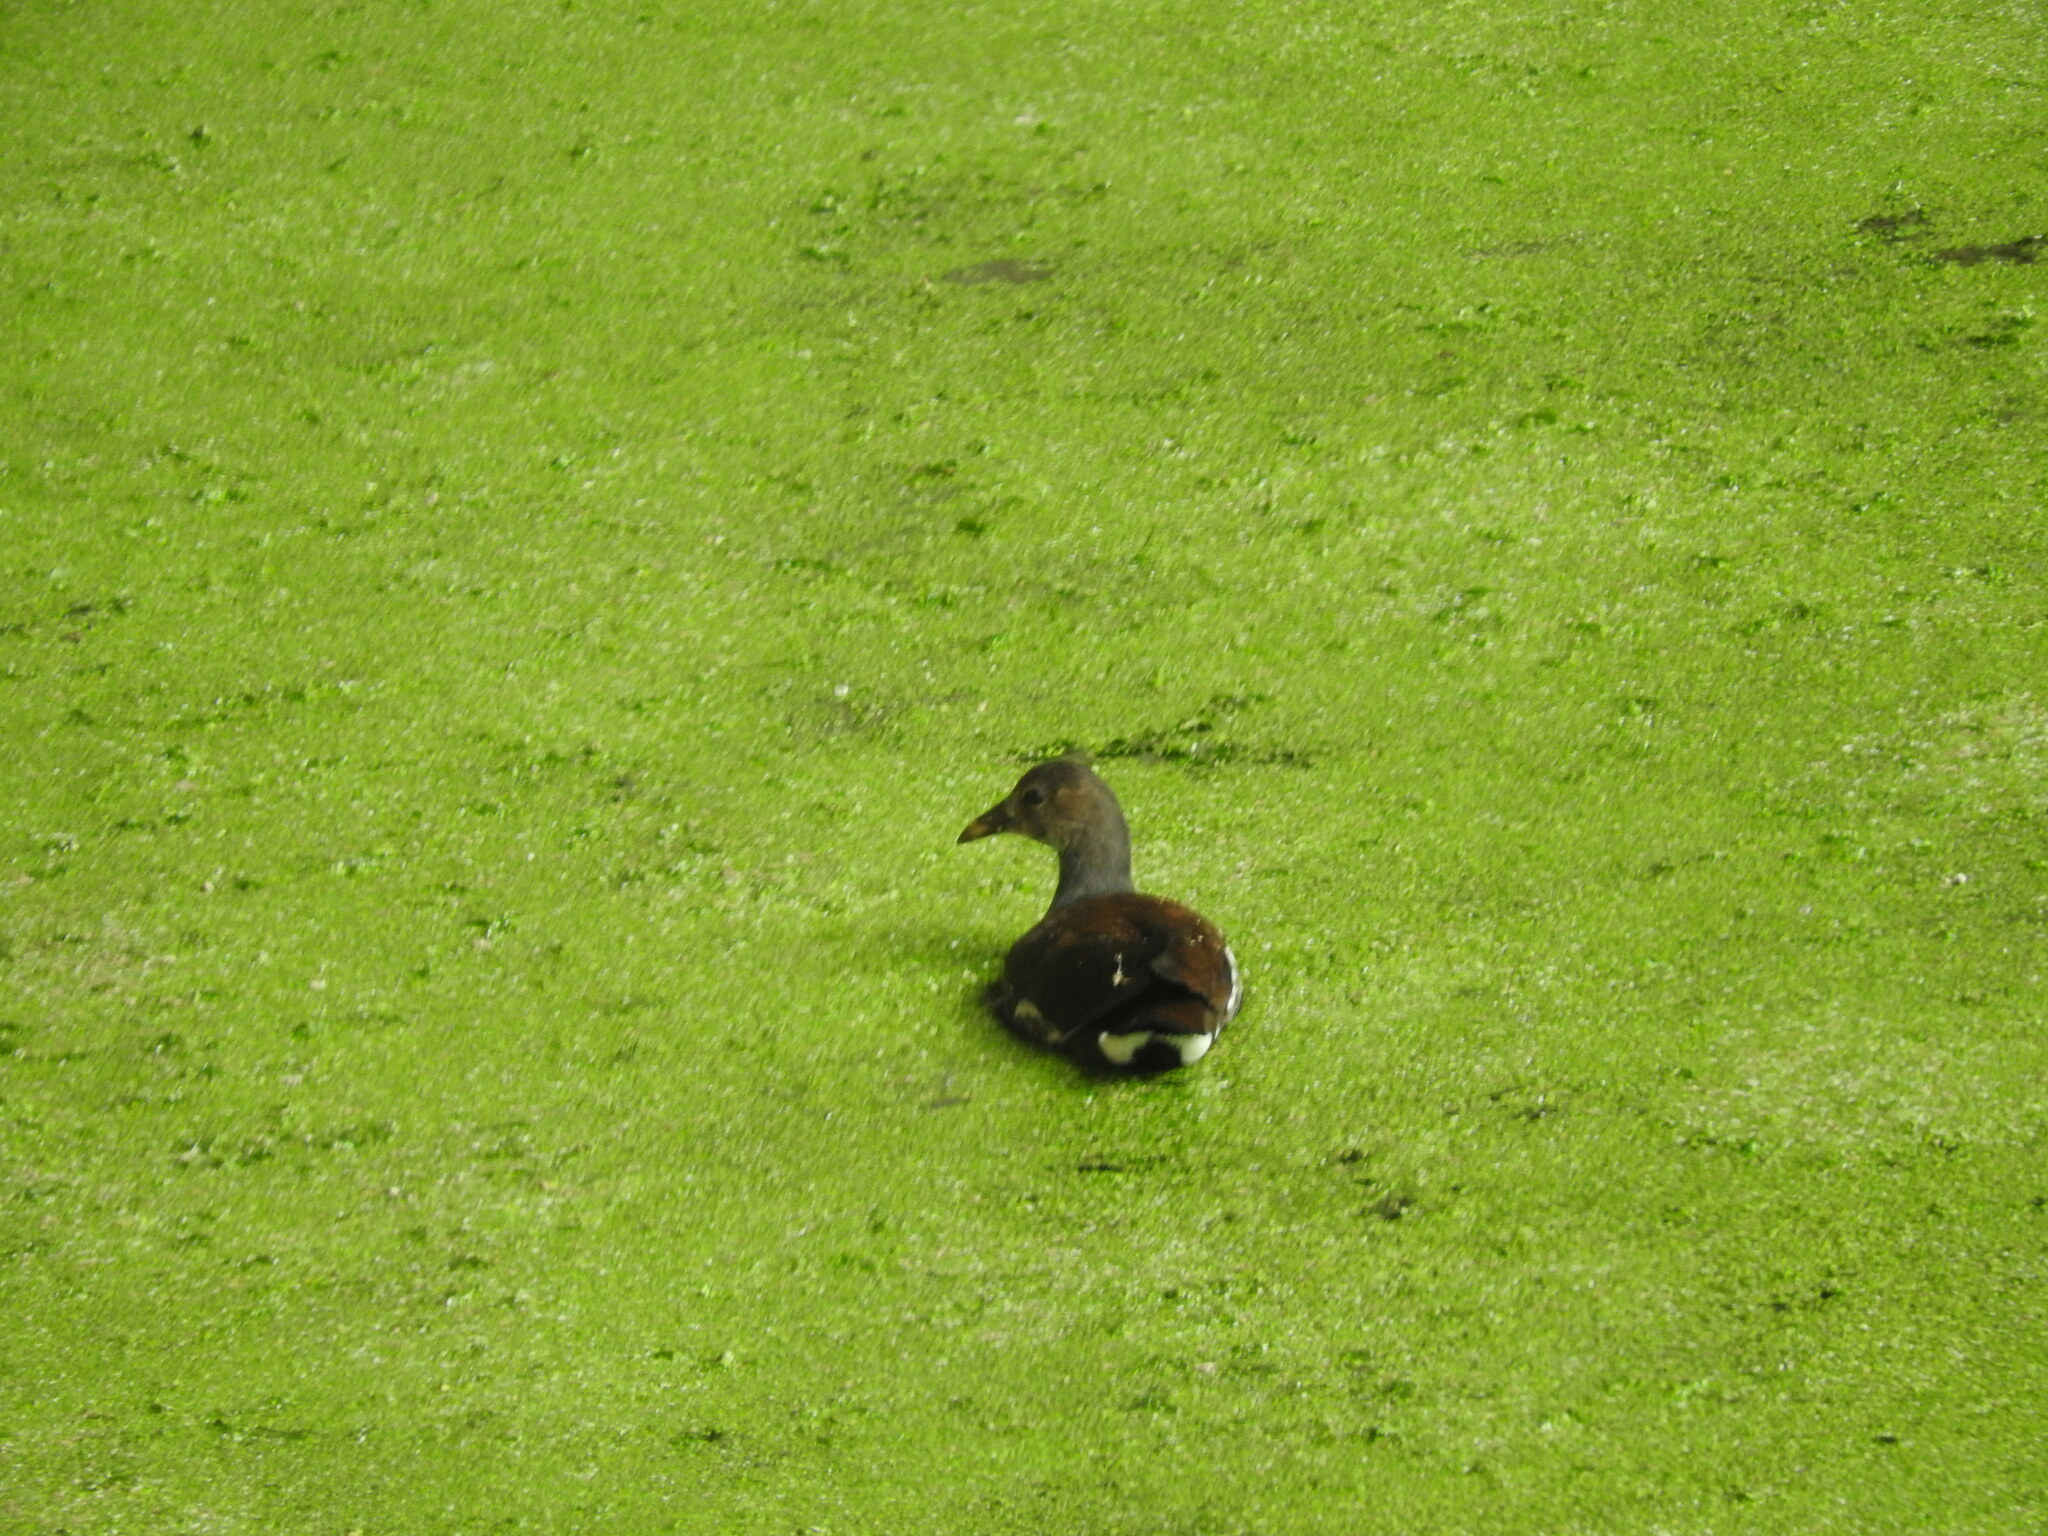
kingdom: Animalia
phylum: Chordata
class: Aves
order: Gruiformes
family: Rallidae
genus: Gallinula
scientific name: Gallinula chloropus
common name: Common moorhen
